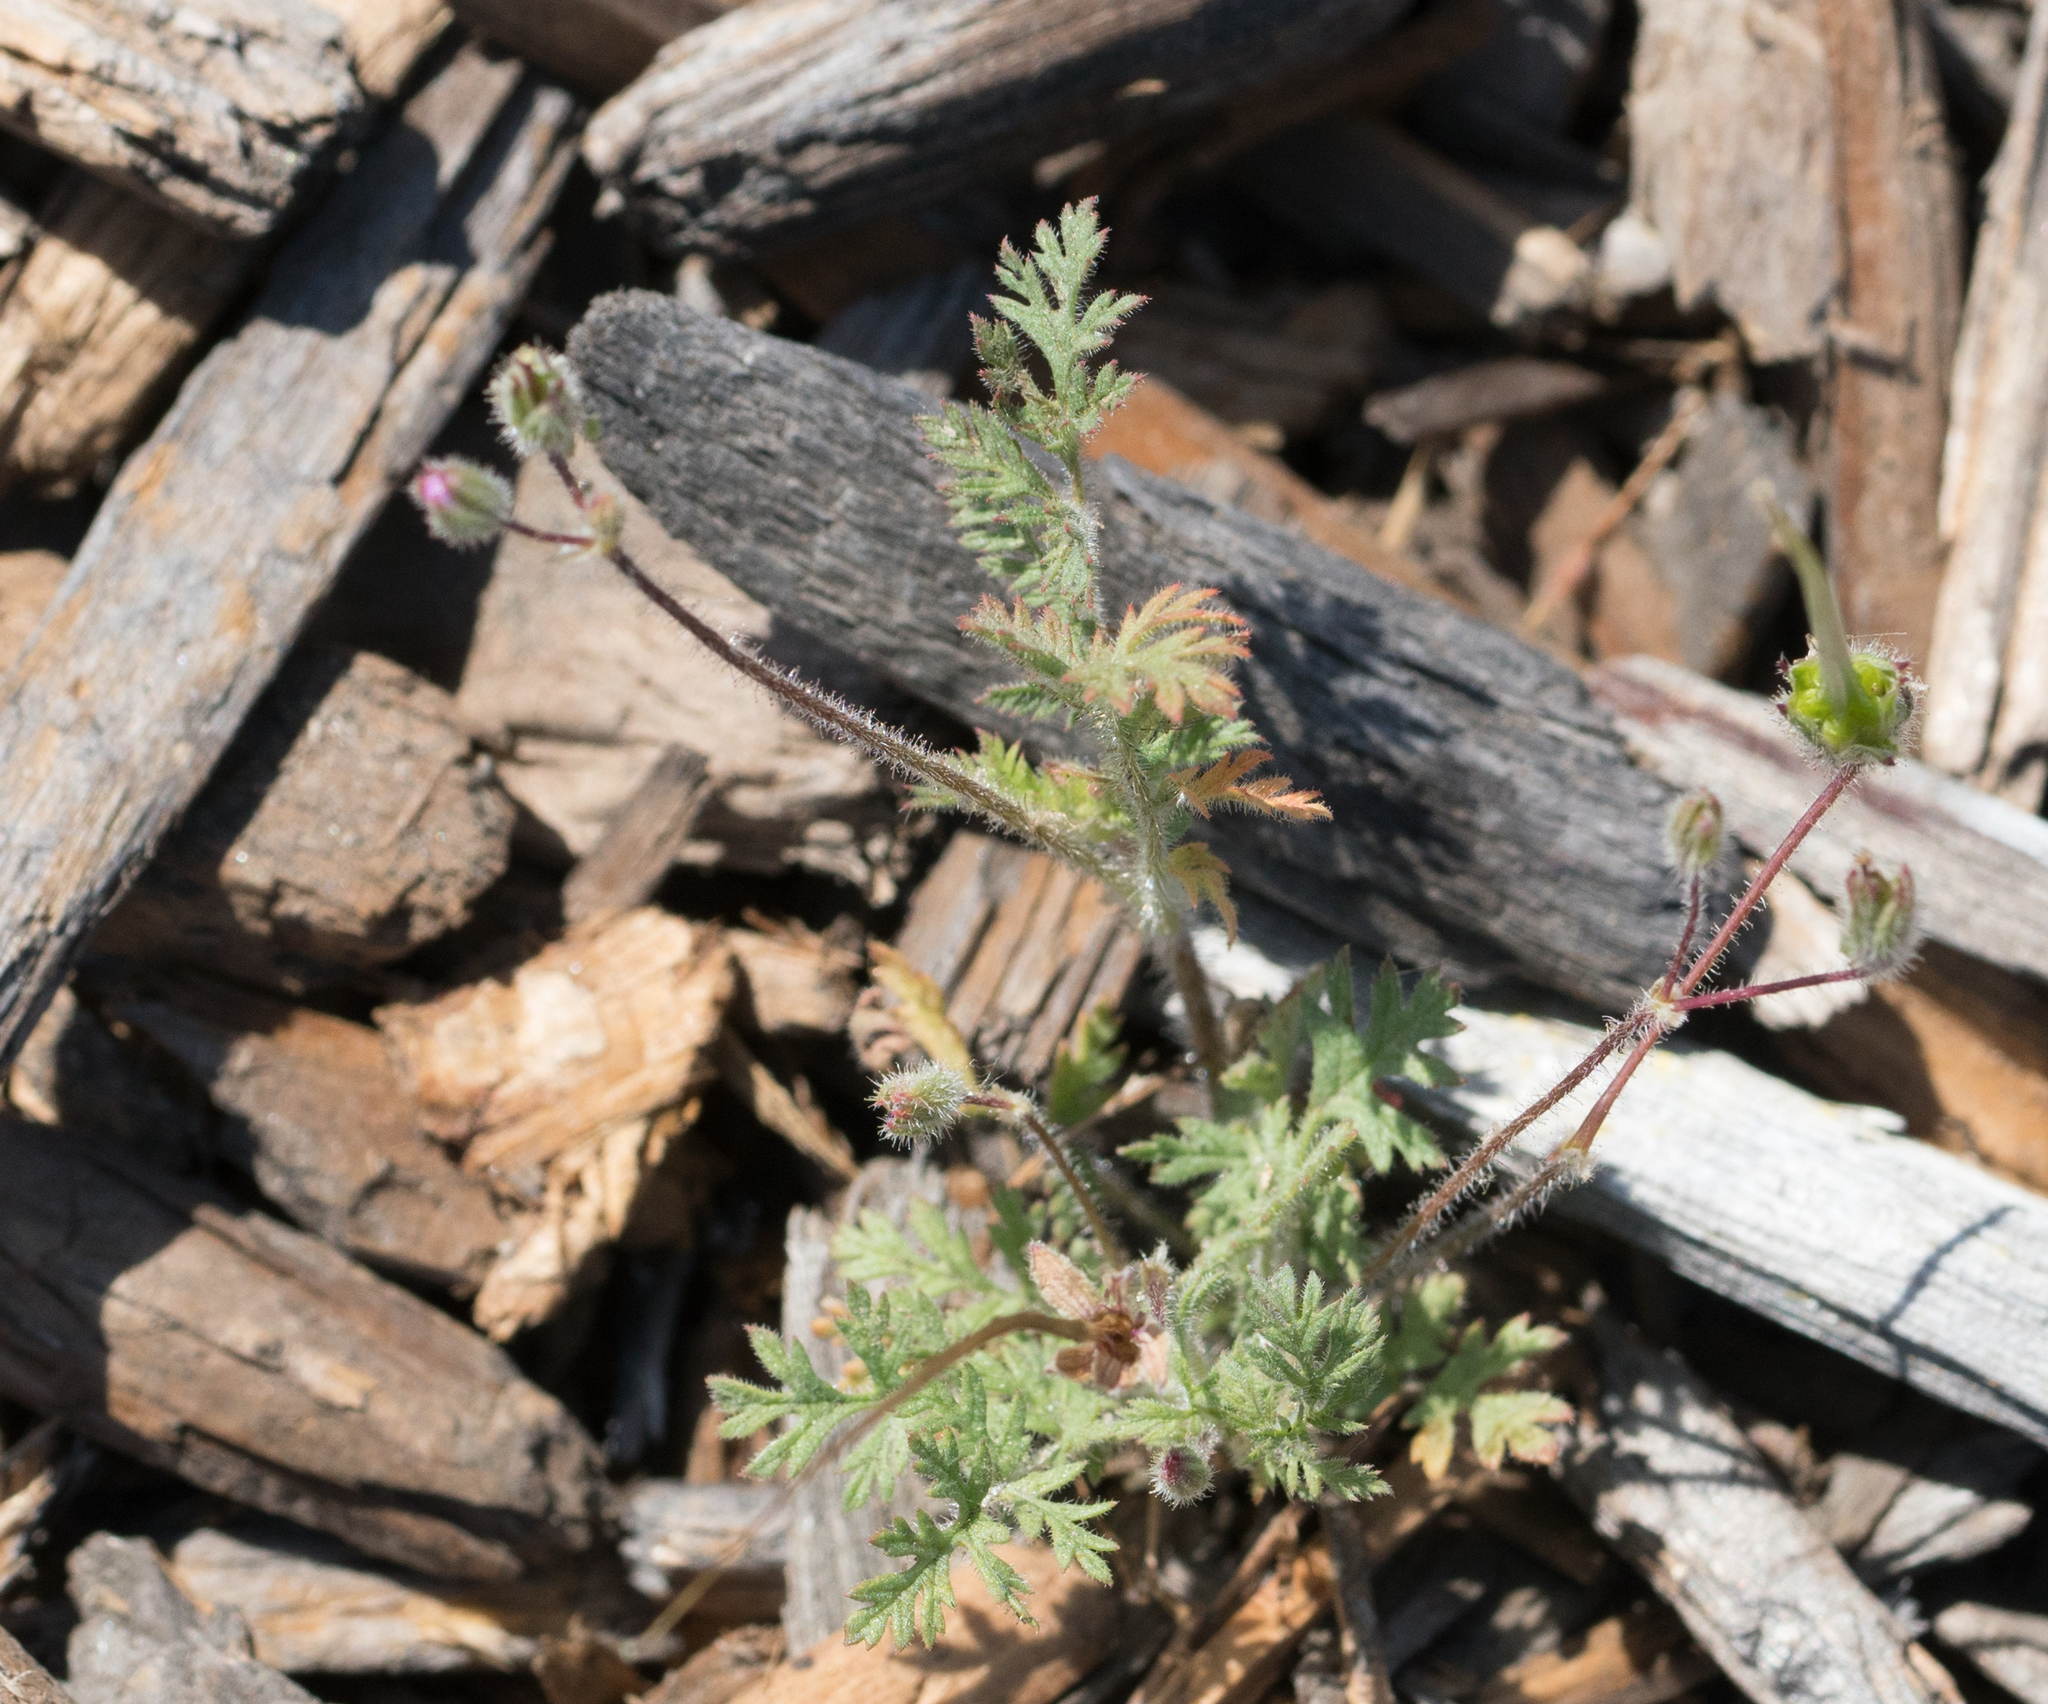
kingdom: Plantae
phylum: Tracheophyta
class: Magnoliopsida
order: Geraniales
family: Geraniaceae
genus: Erodium
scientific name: Erodium cicutarium
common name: Common stork's-bill
